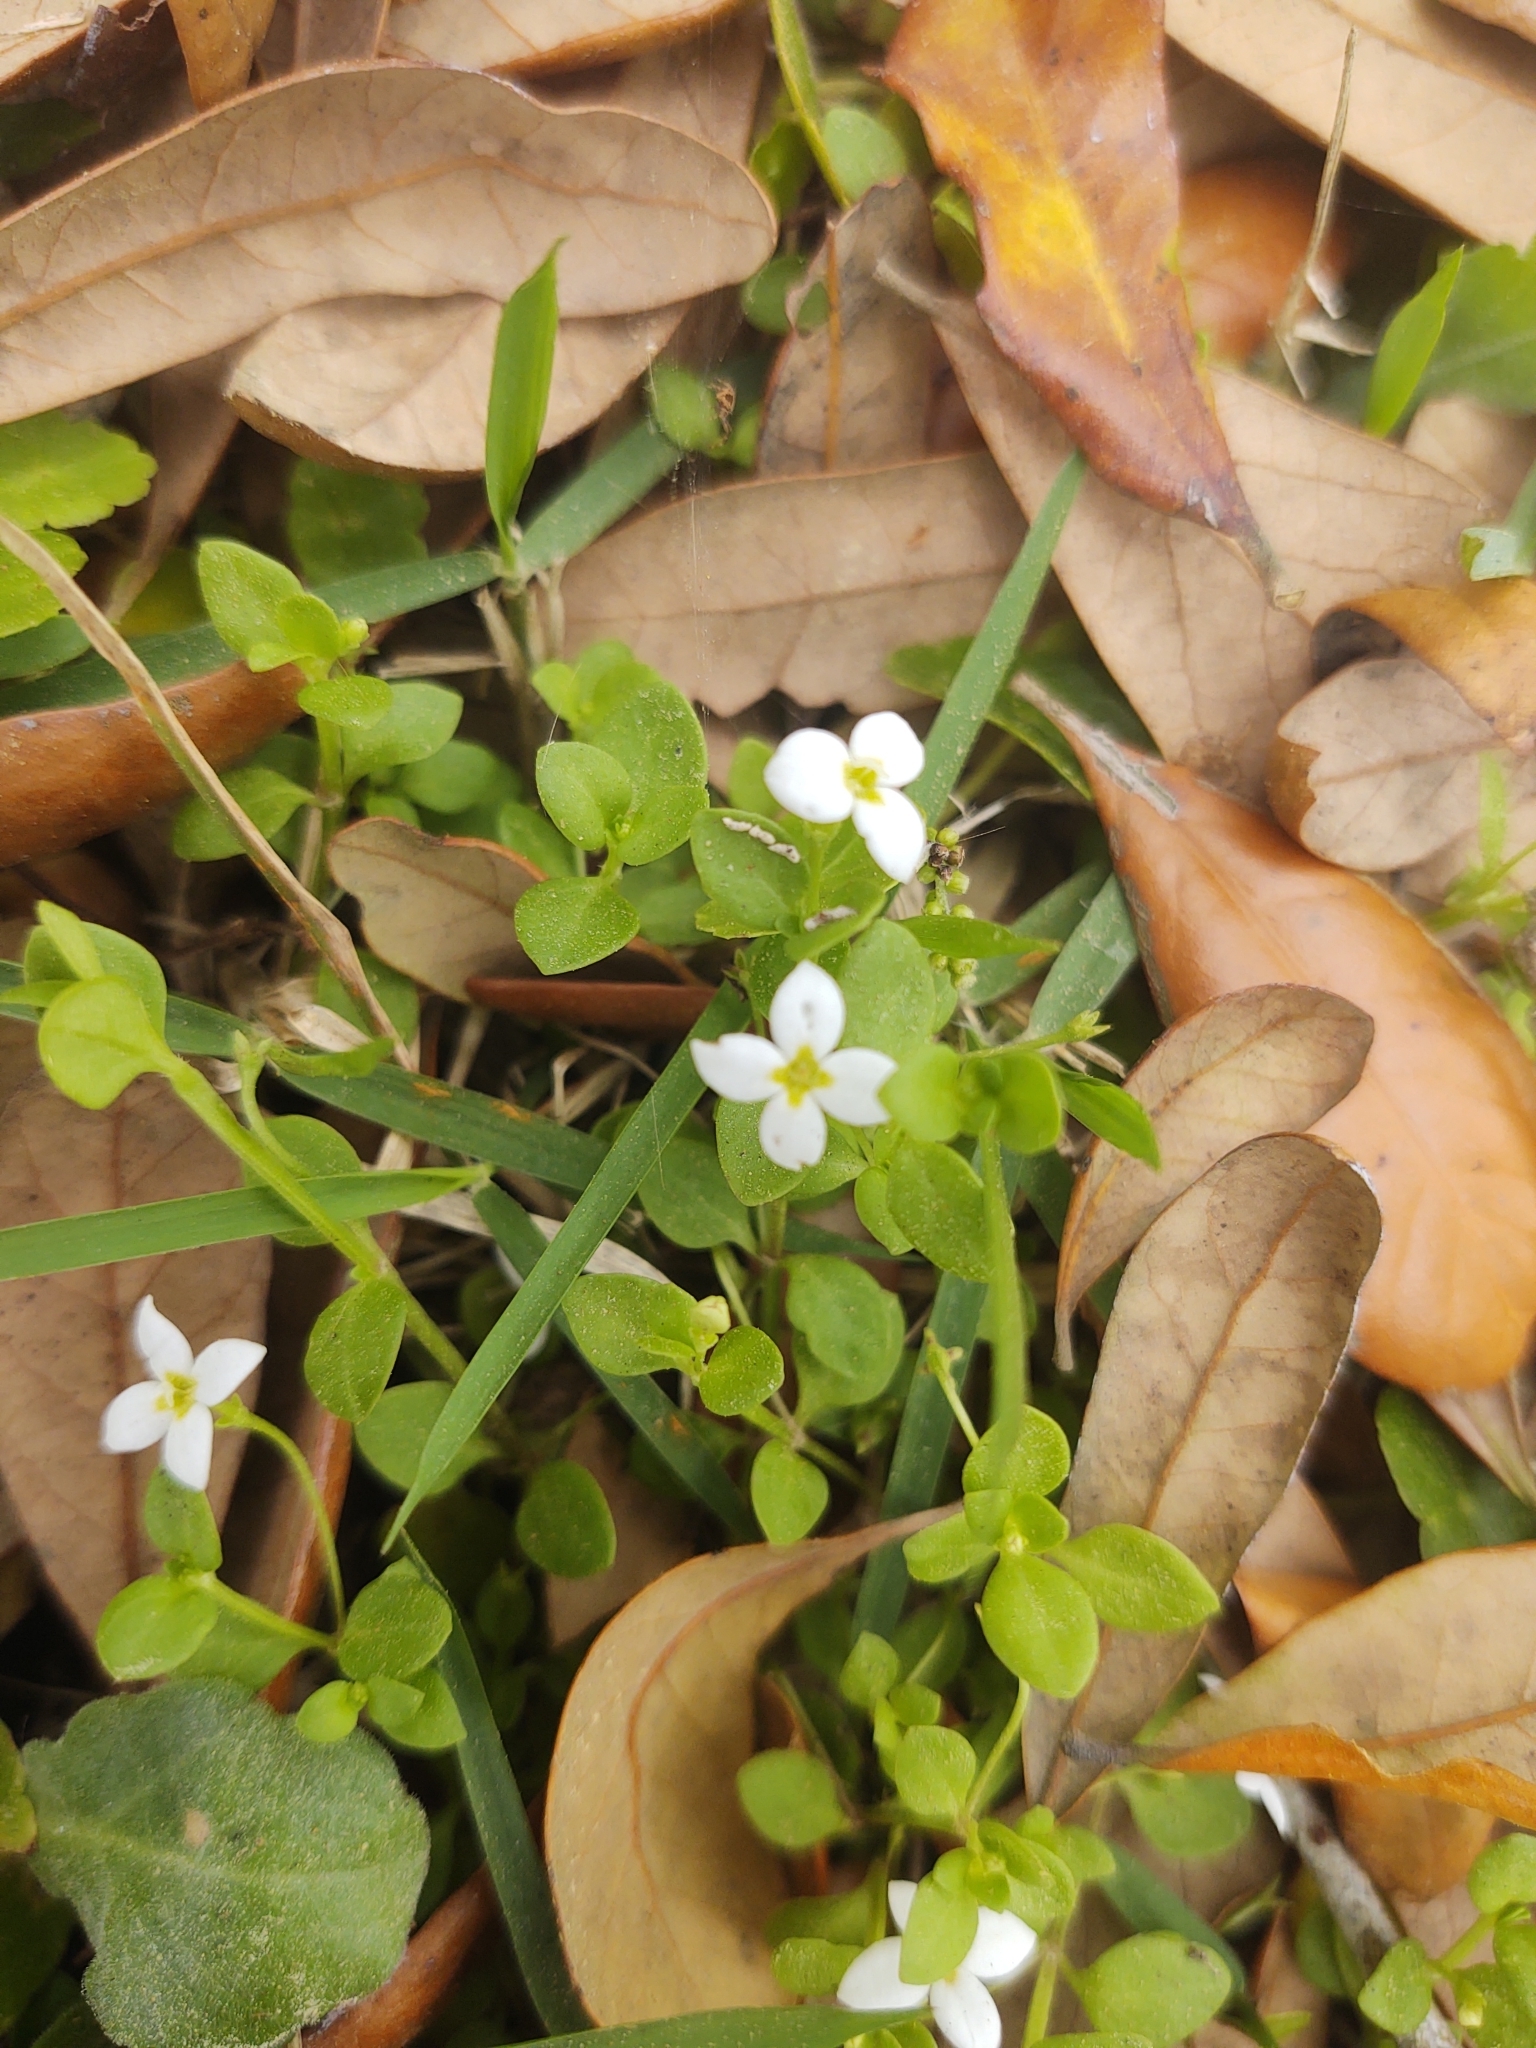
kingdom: Plantae
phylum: Tracheophyta
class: Magnoliopsida
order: Gentianales
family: Rubiaceae
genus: Houstonia
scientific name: Houstonia procumbens
